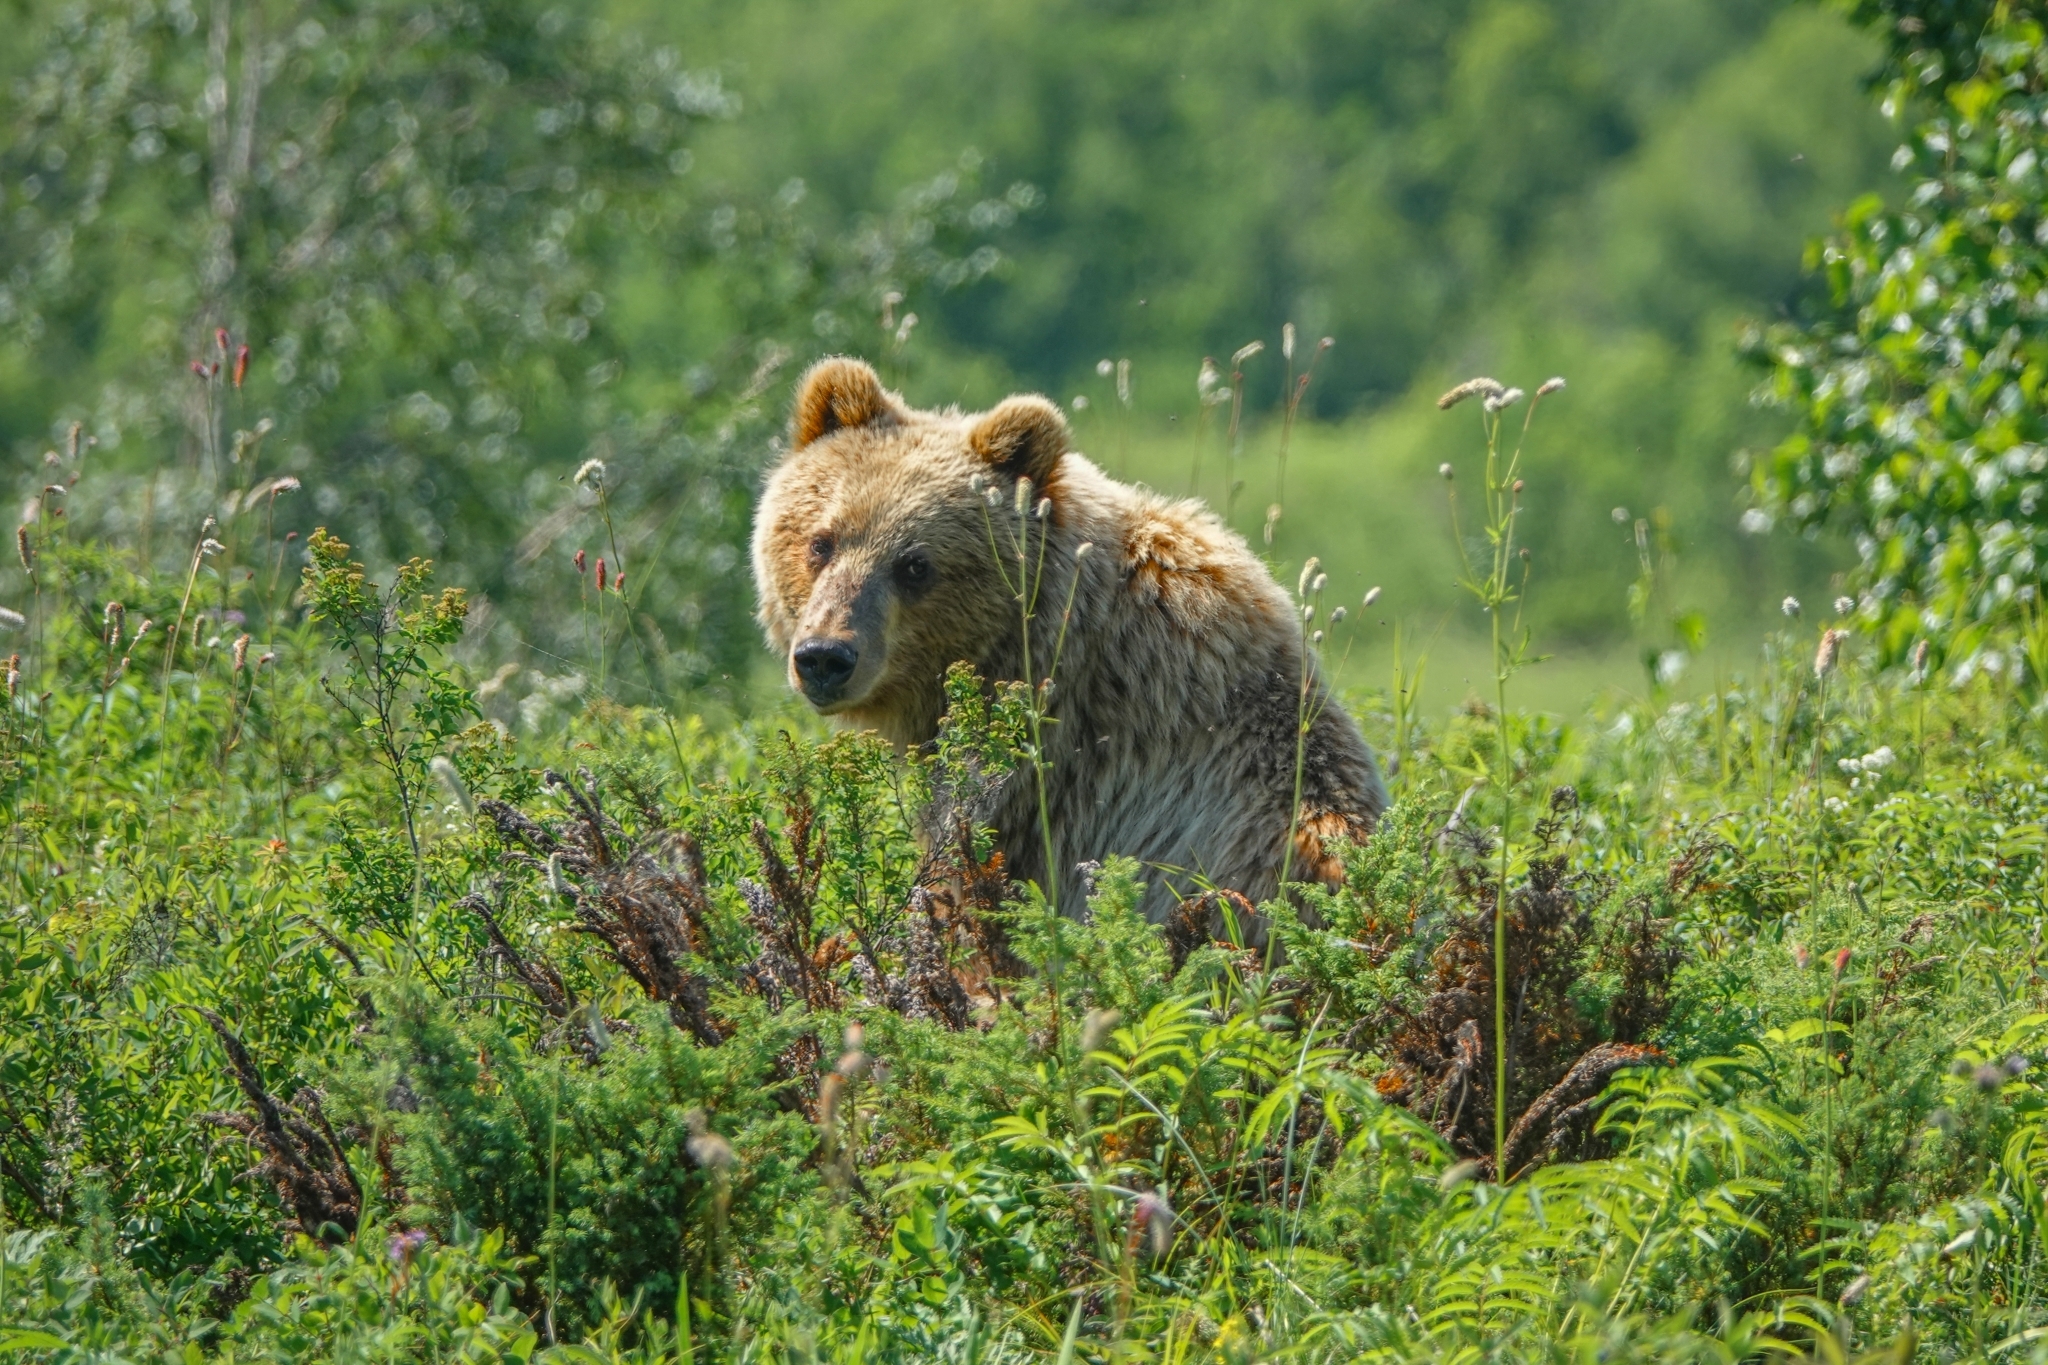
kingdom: Animalia
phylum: Chordata
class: Mammalia
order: Carnivora
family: Ursidae
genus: Ursus
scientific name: Ursus arctos
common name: Brown bear
